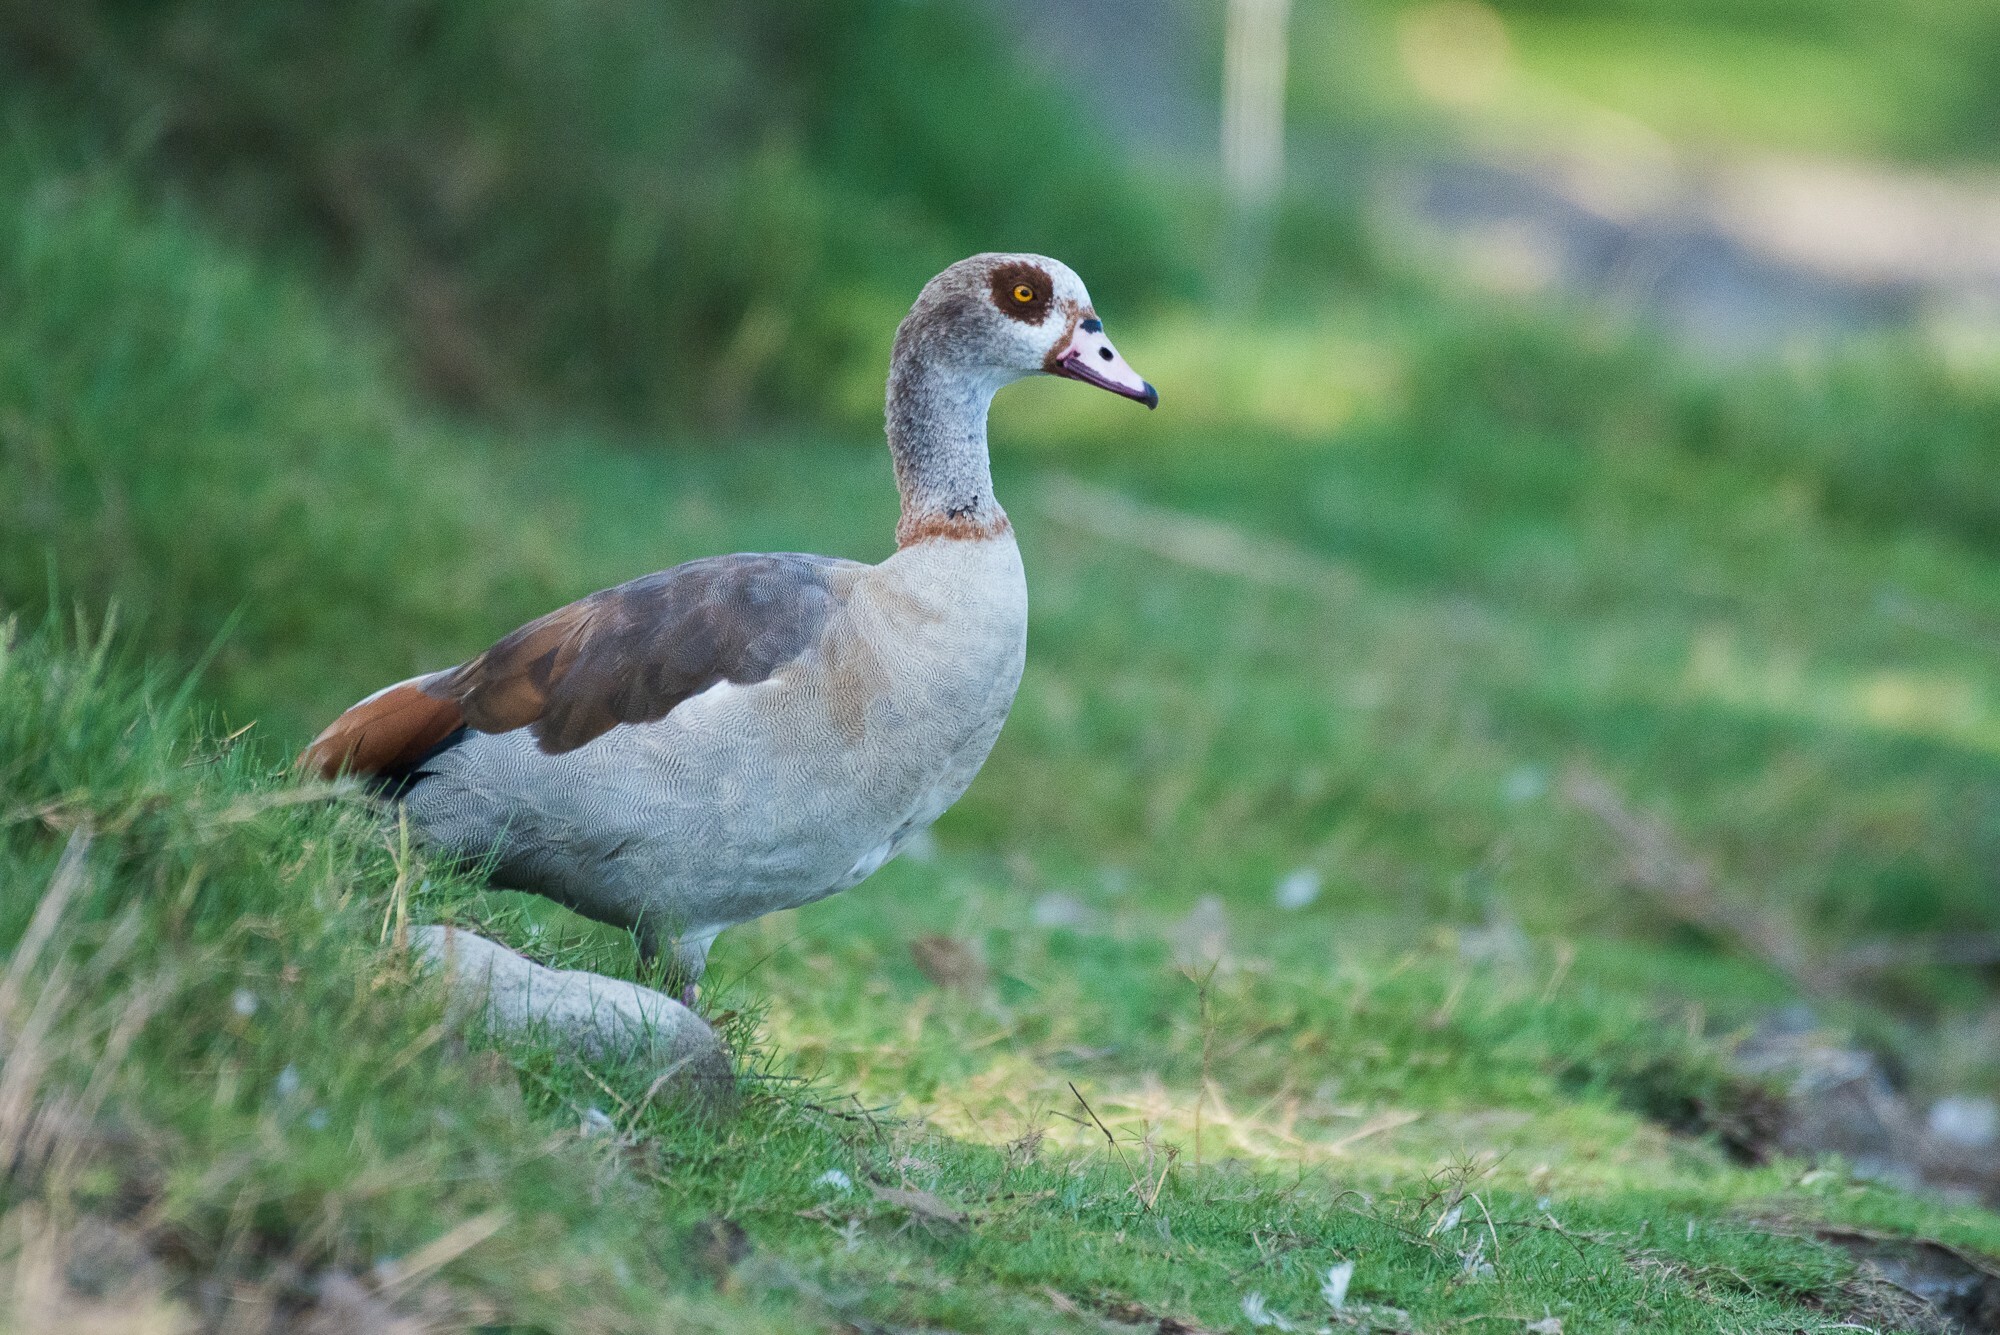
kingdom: Animalia
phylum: Chordata
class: Aves
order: Anseriformes
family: Anatidae
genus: Alopochen
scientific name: Alopochen aegyptiaca
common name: Egyptian goose
